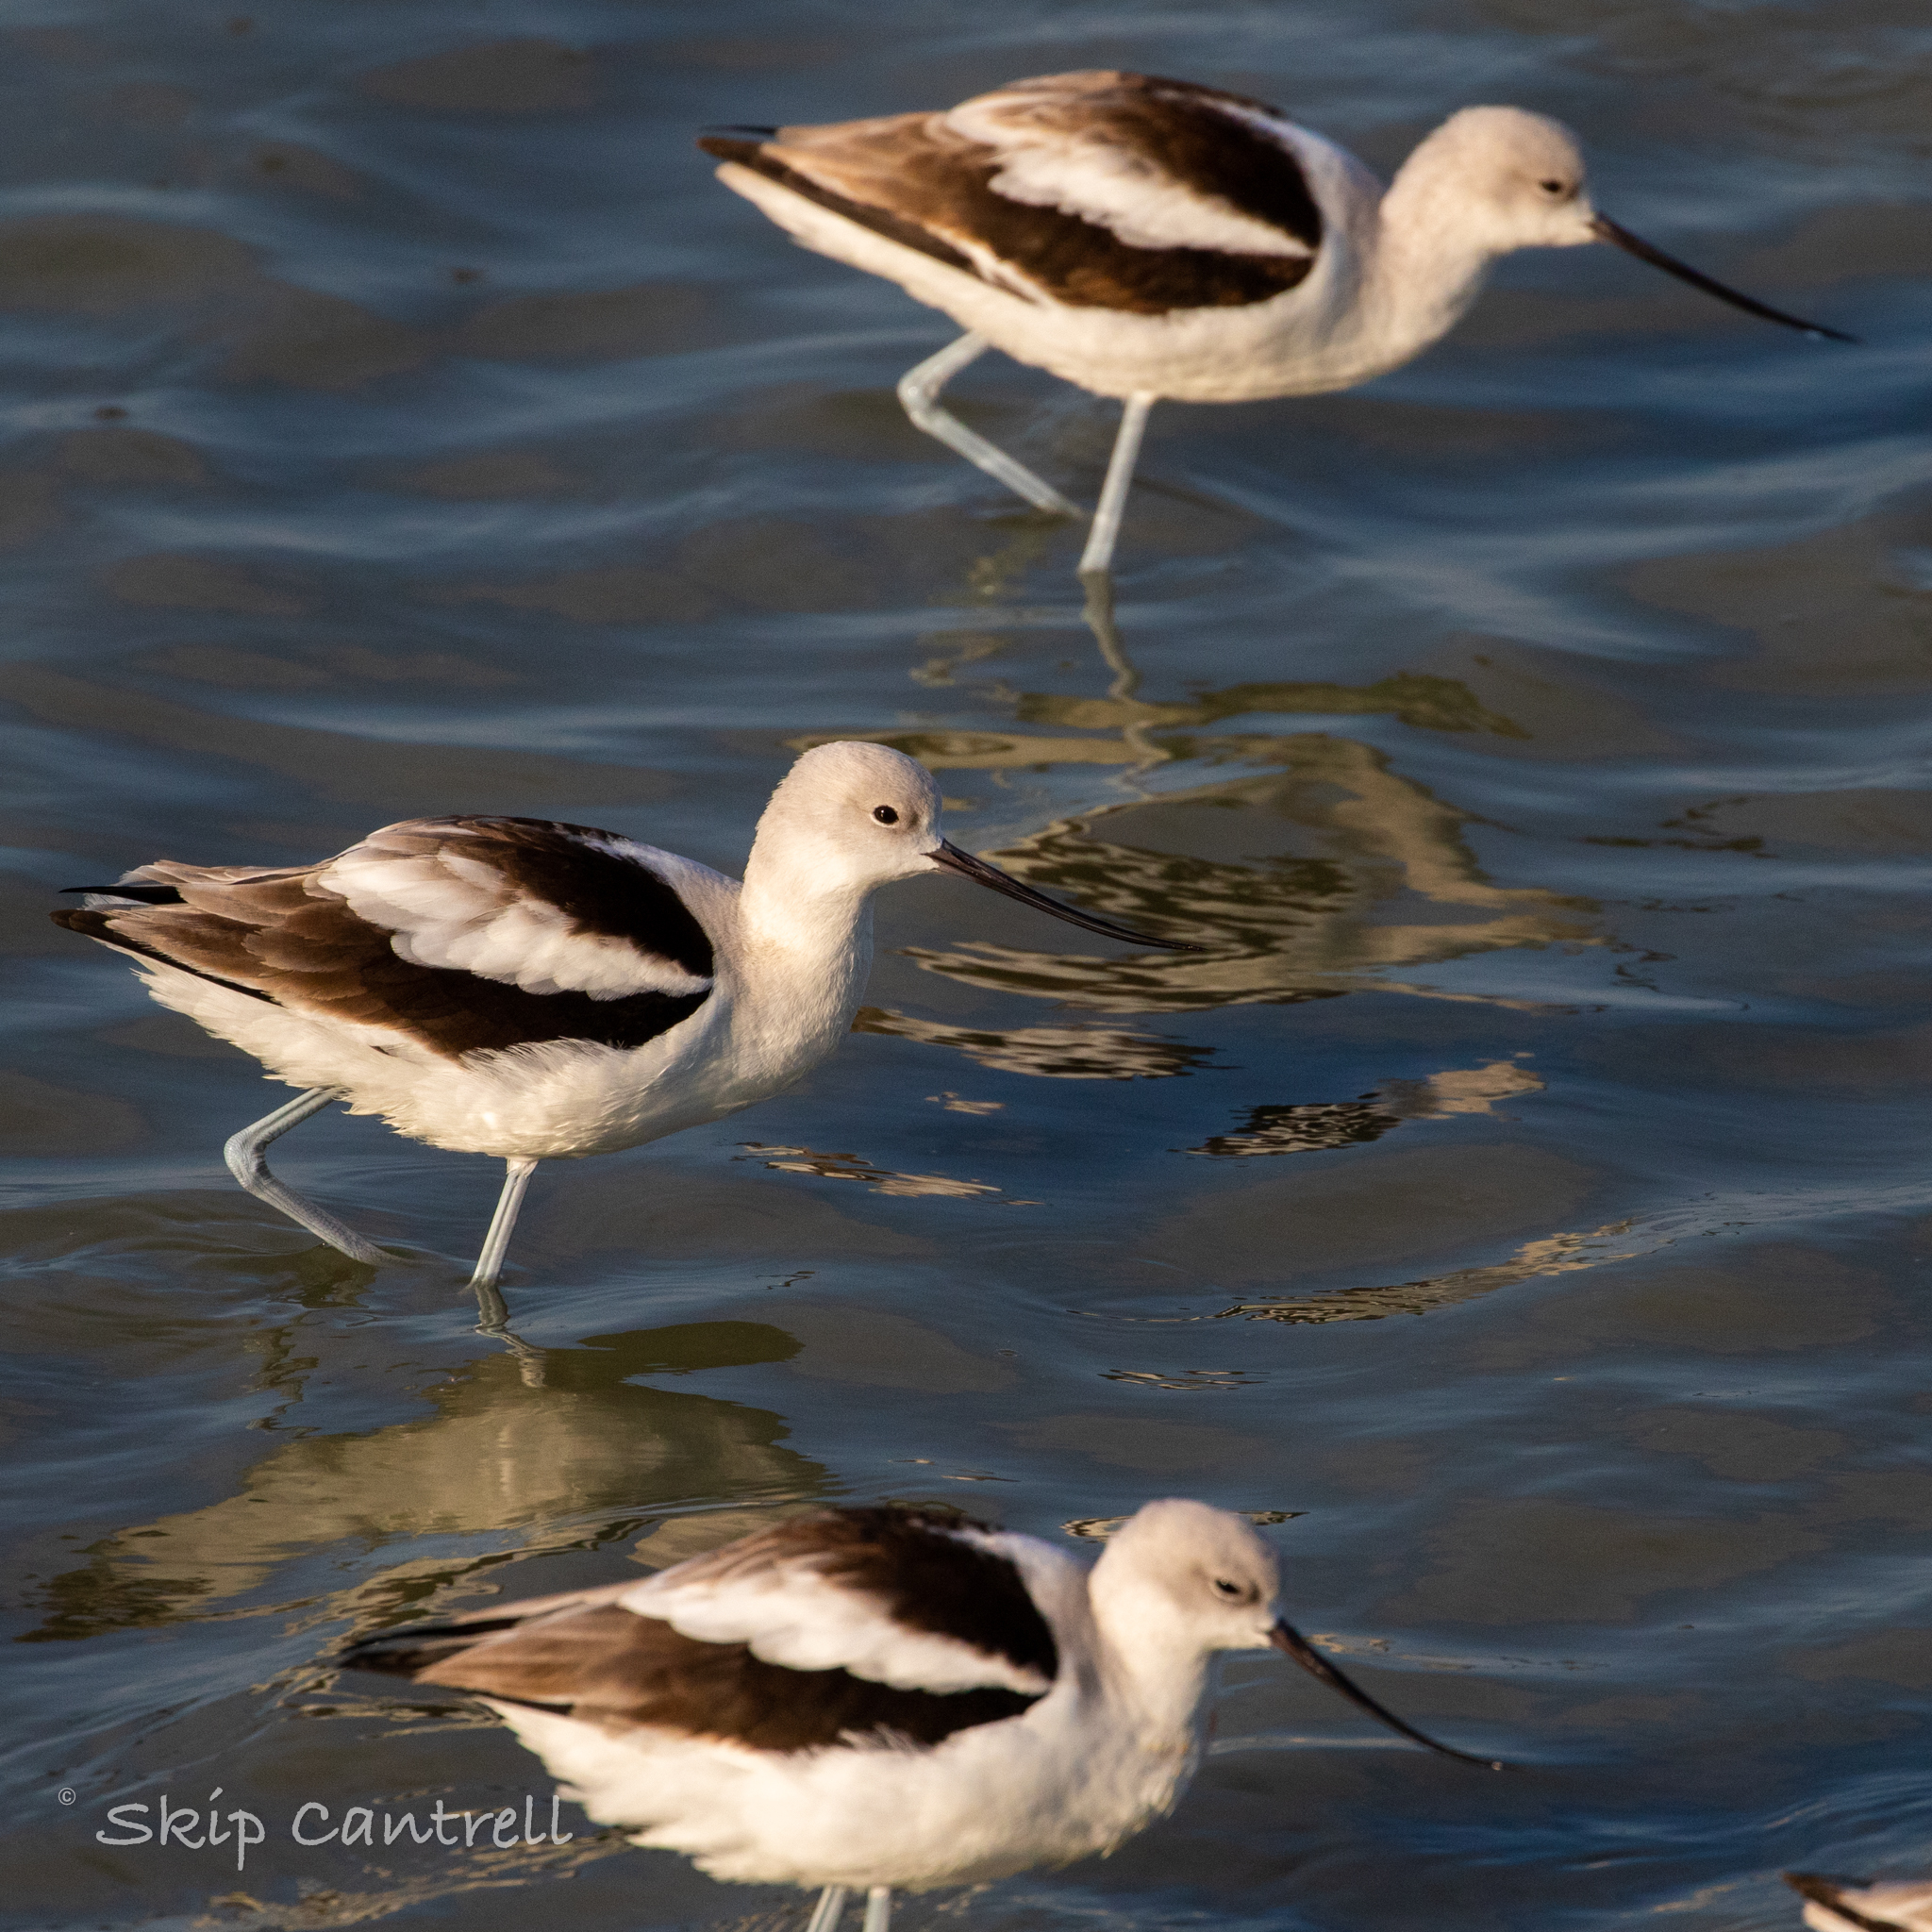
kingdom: Animalia
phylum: Chordata
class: Aves
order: Charadriiformes
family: Recurvirostridae
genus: Recurvirostra
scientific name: Recurvirostra americana
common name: American avocet
